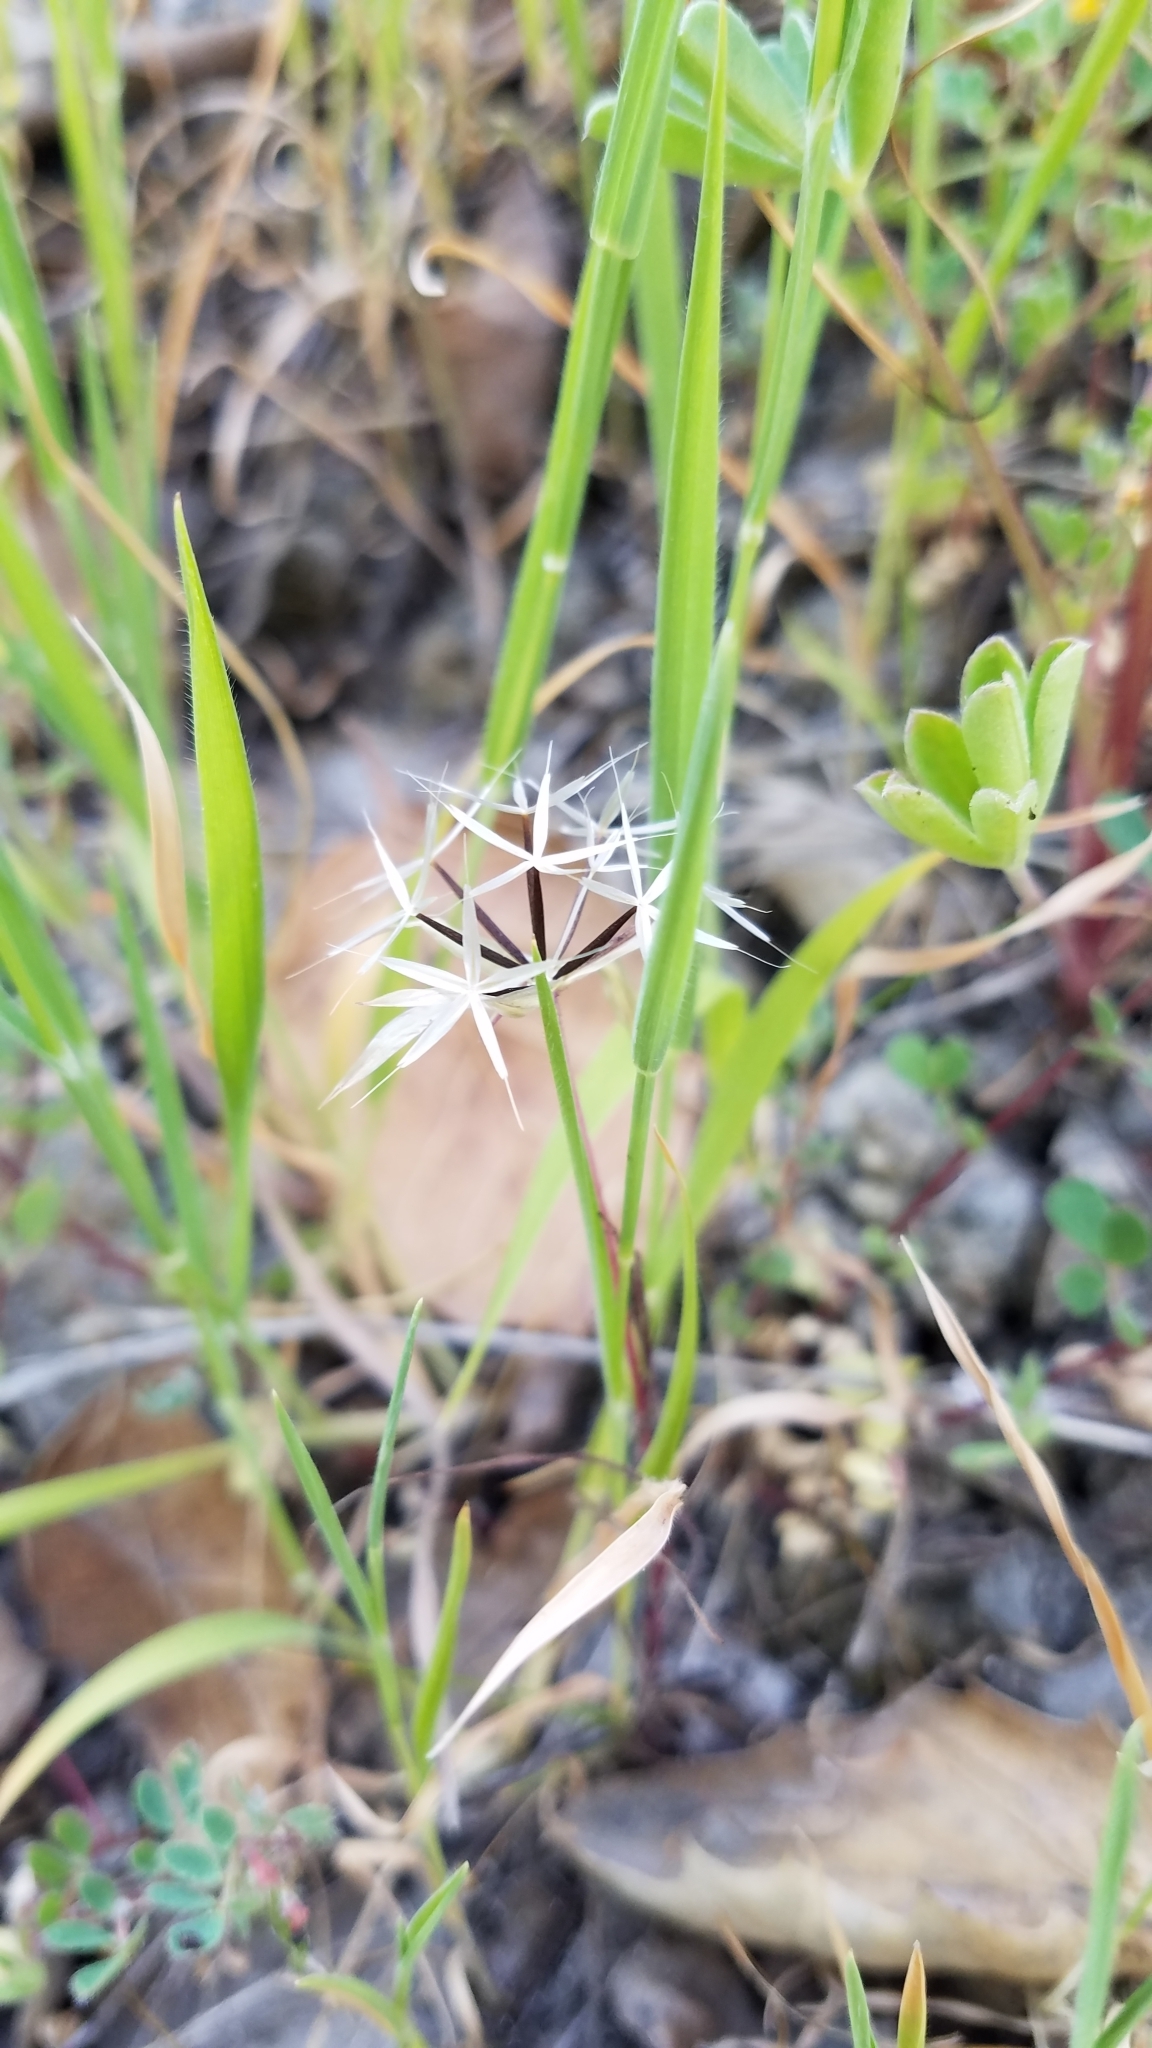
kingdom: Plantae
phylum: Tracheophyta
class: Magnoliopsida
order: Asterales
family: Asteraceae
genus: Microseris
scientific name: Microseris lindleyi
